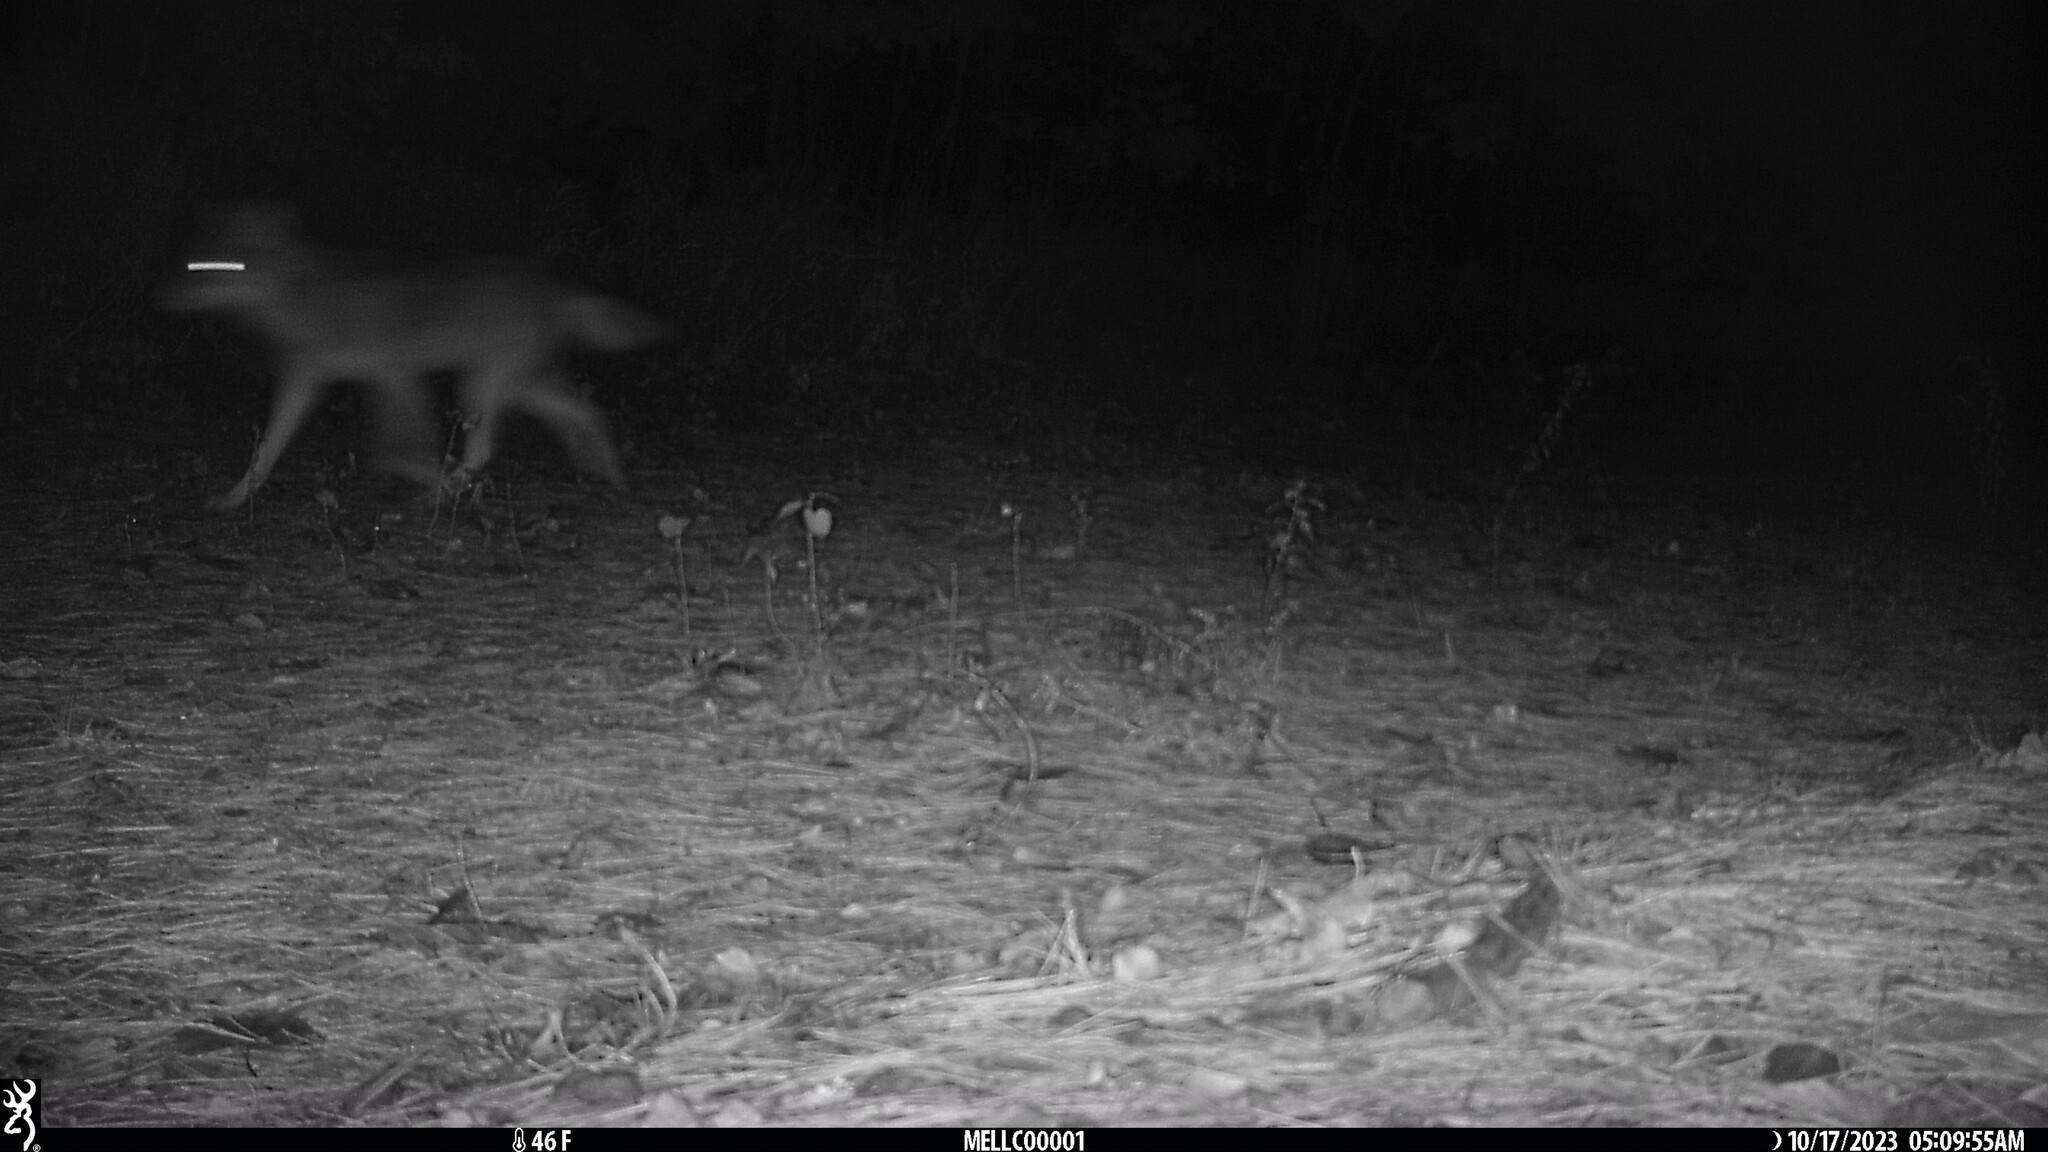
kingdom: Animalia
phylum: Chordata
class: Mammalia
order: Carnivora
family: Canidae
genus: Canis
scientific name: Canis latrans
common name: Coyote
